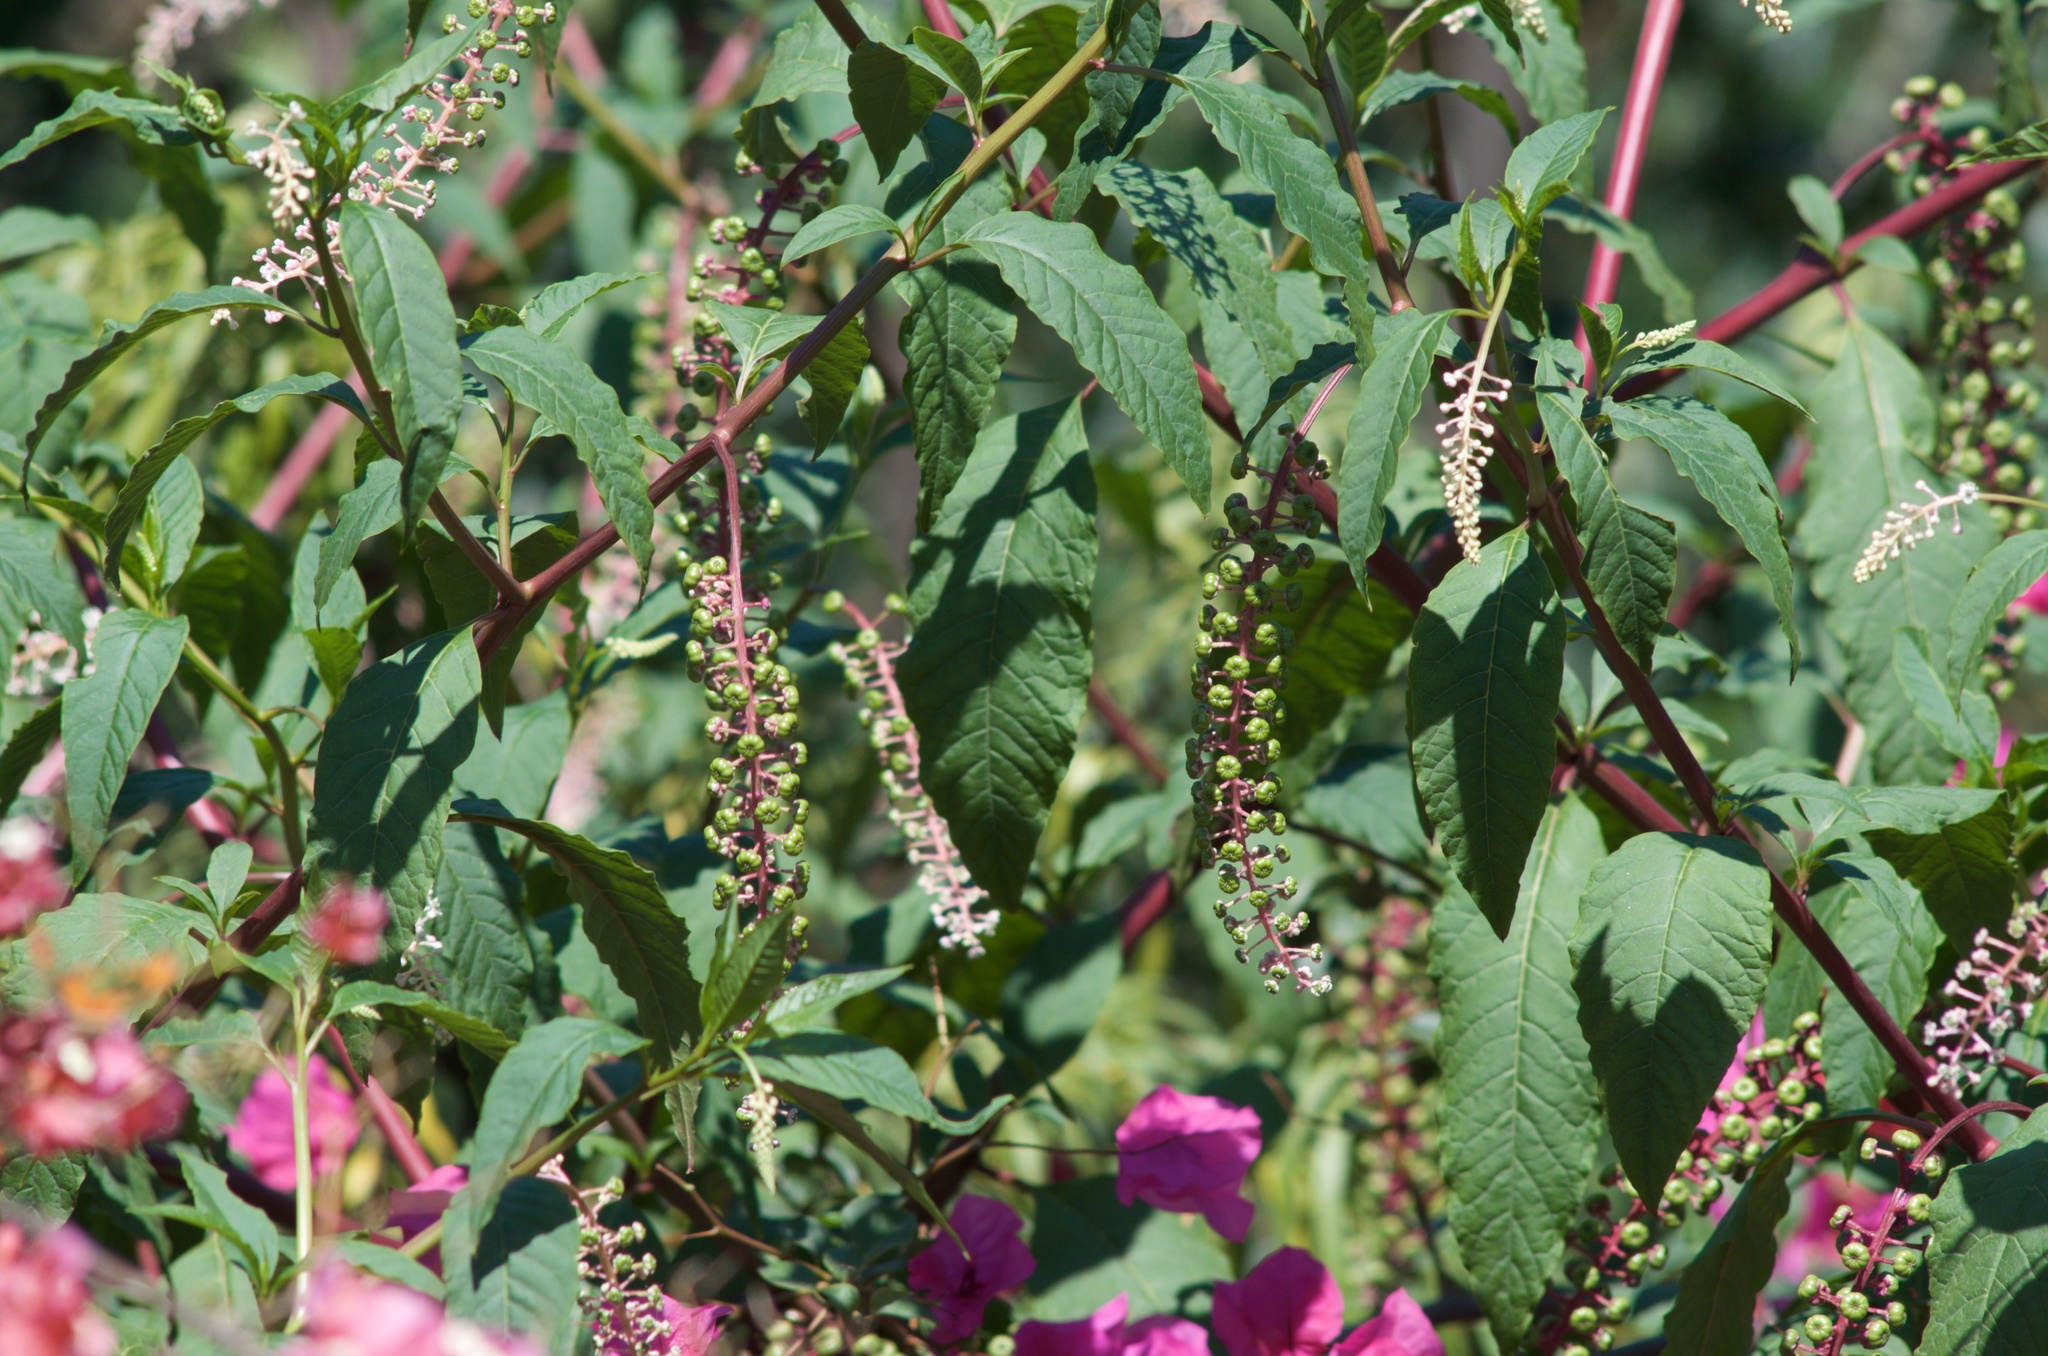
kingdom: Plantae
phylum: Tracheophyta
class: Magnoliopsida
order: Caryophyllales
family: Phytolaccaceae
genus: Phytolacca
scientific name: Phytolacca americana
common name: American pokeweed
